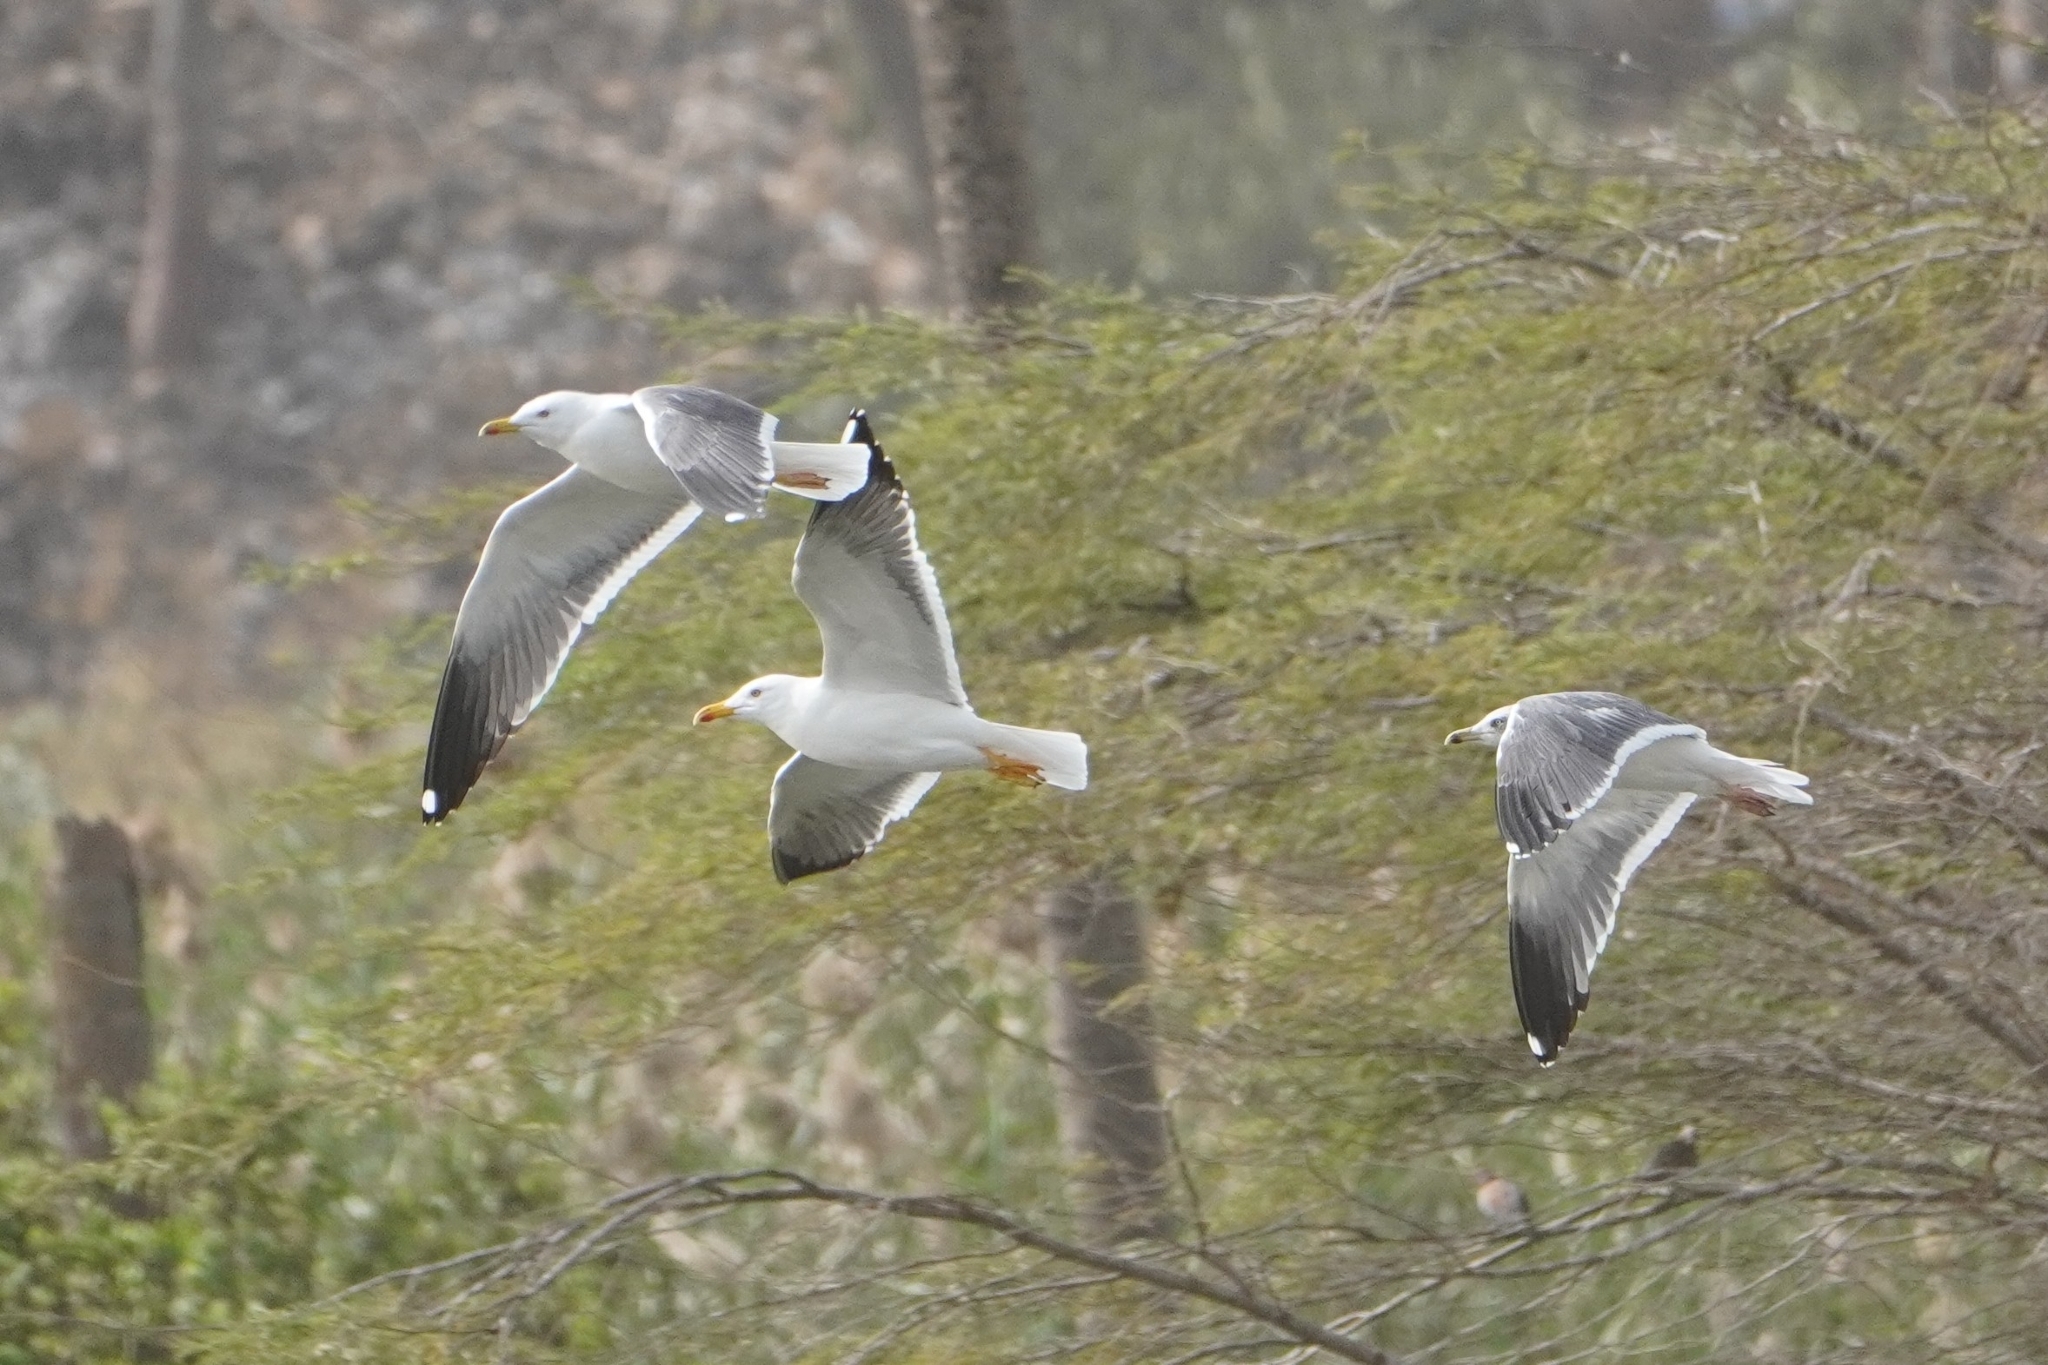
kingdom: Animalia
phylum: Chordata
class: Aves
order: Charadriiformes
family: Laridae
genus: Larus
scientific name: Larus fuscus
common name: Lesser black-backed gull
